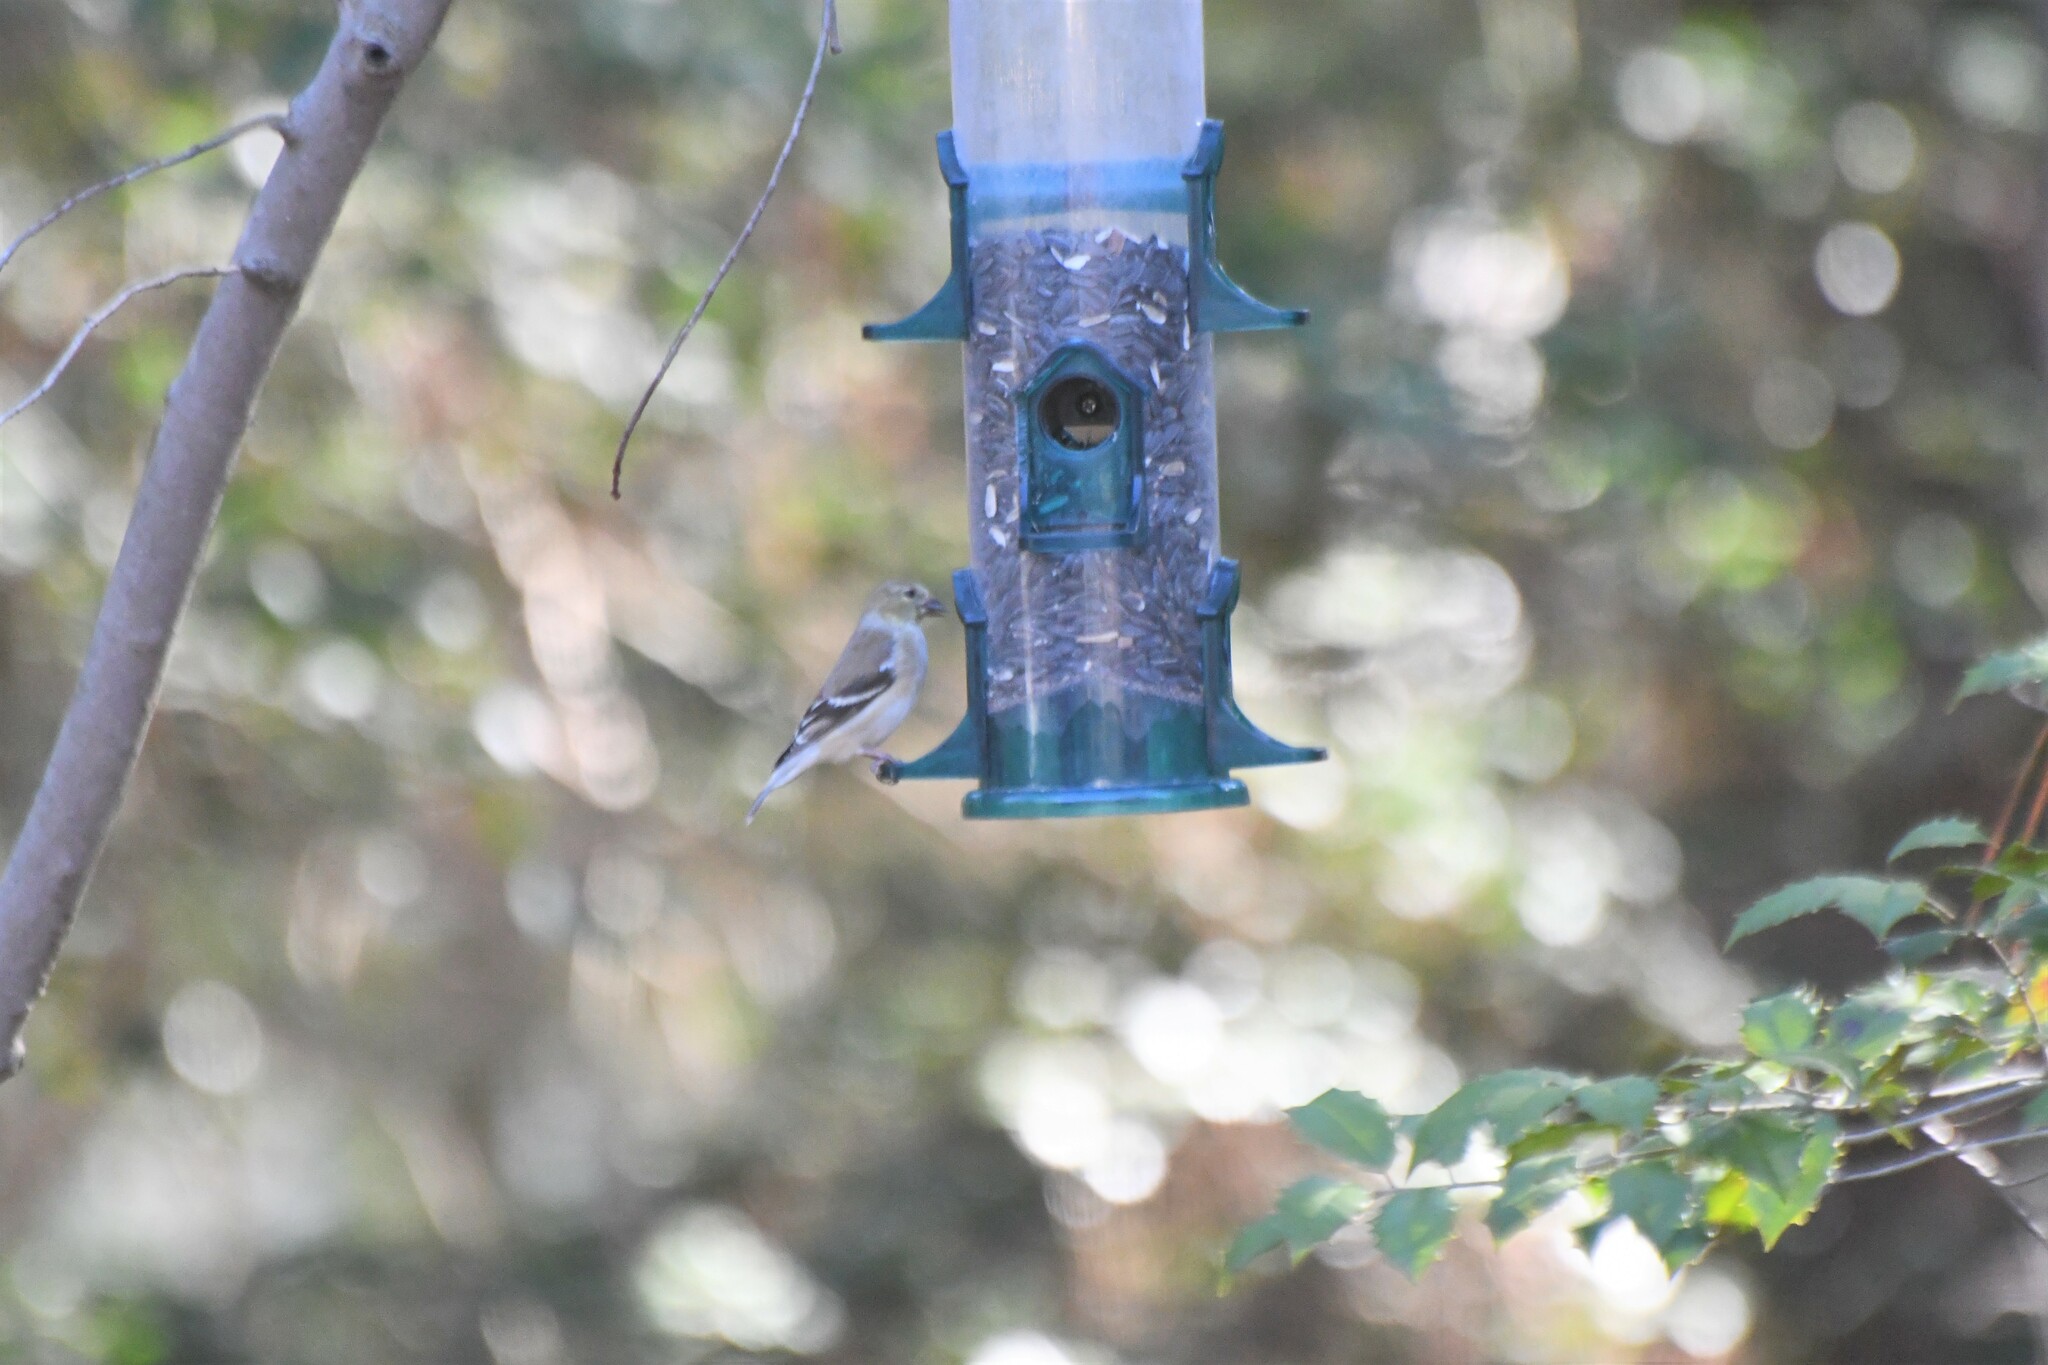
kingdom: Animalia
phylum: Chordata
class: Aves
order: Passeriformes
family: Fringillidae
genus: Spinus
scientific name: Spinus tristis
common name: American goldfinch
